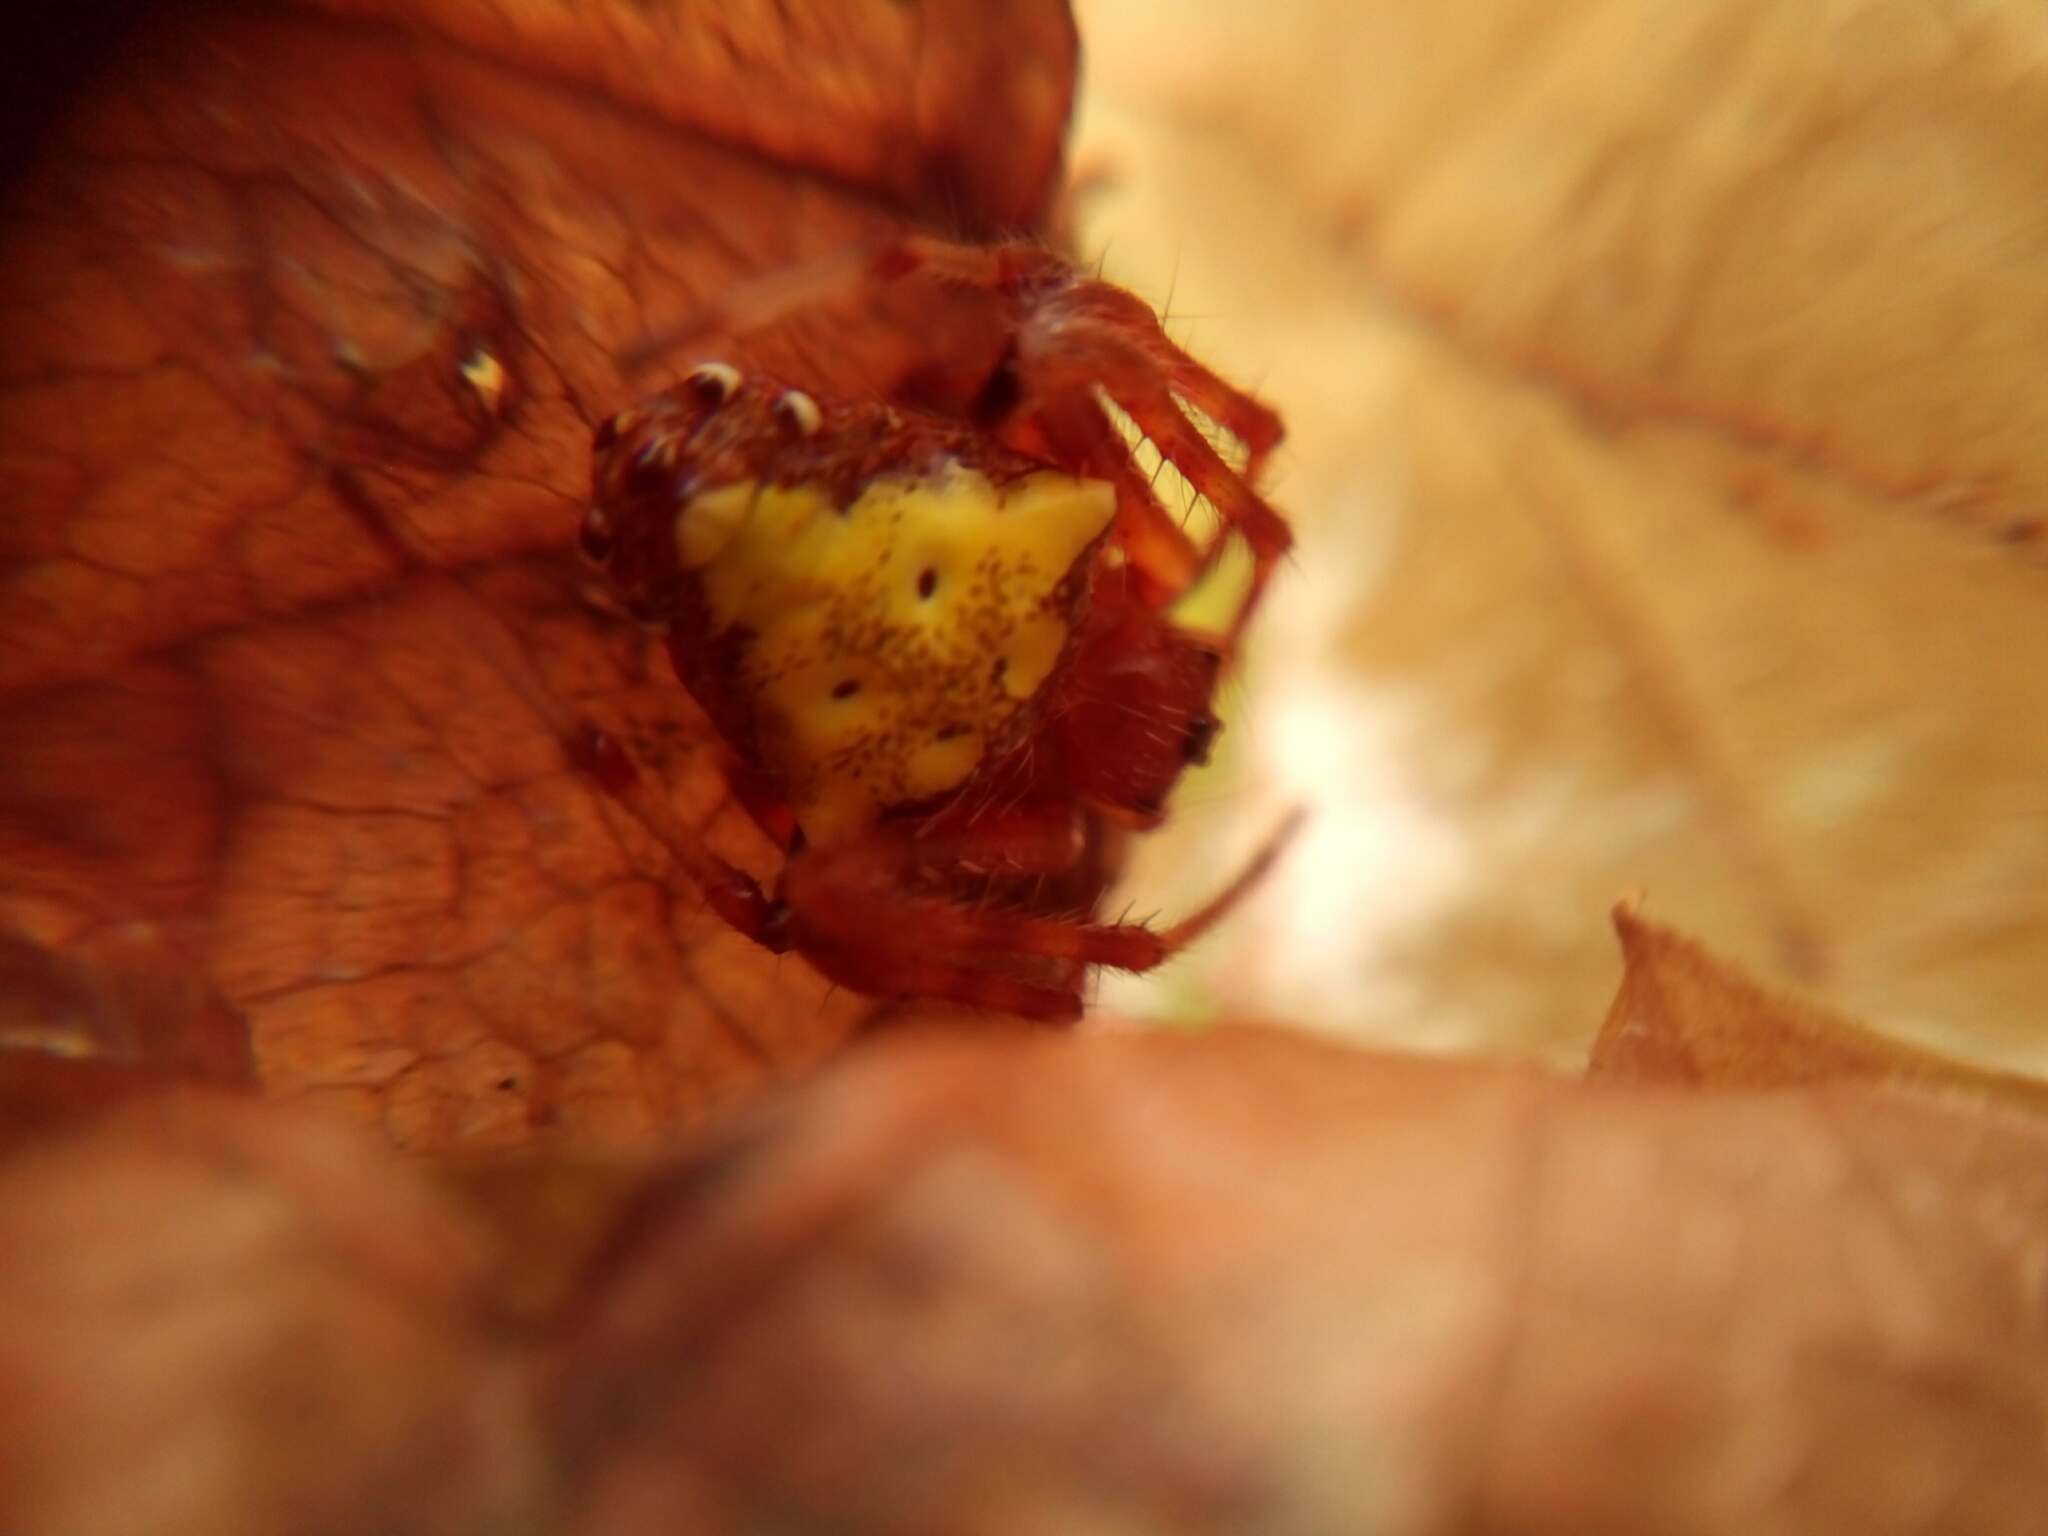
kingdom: Animalia
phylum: Arthropoda
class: Arachnida
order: Araneae
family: Araneidae
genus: Verrucosa
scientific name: Verrucosa arenata
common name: Orb weavers
